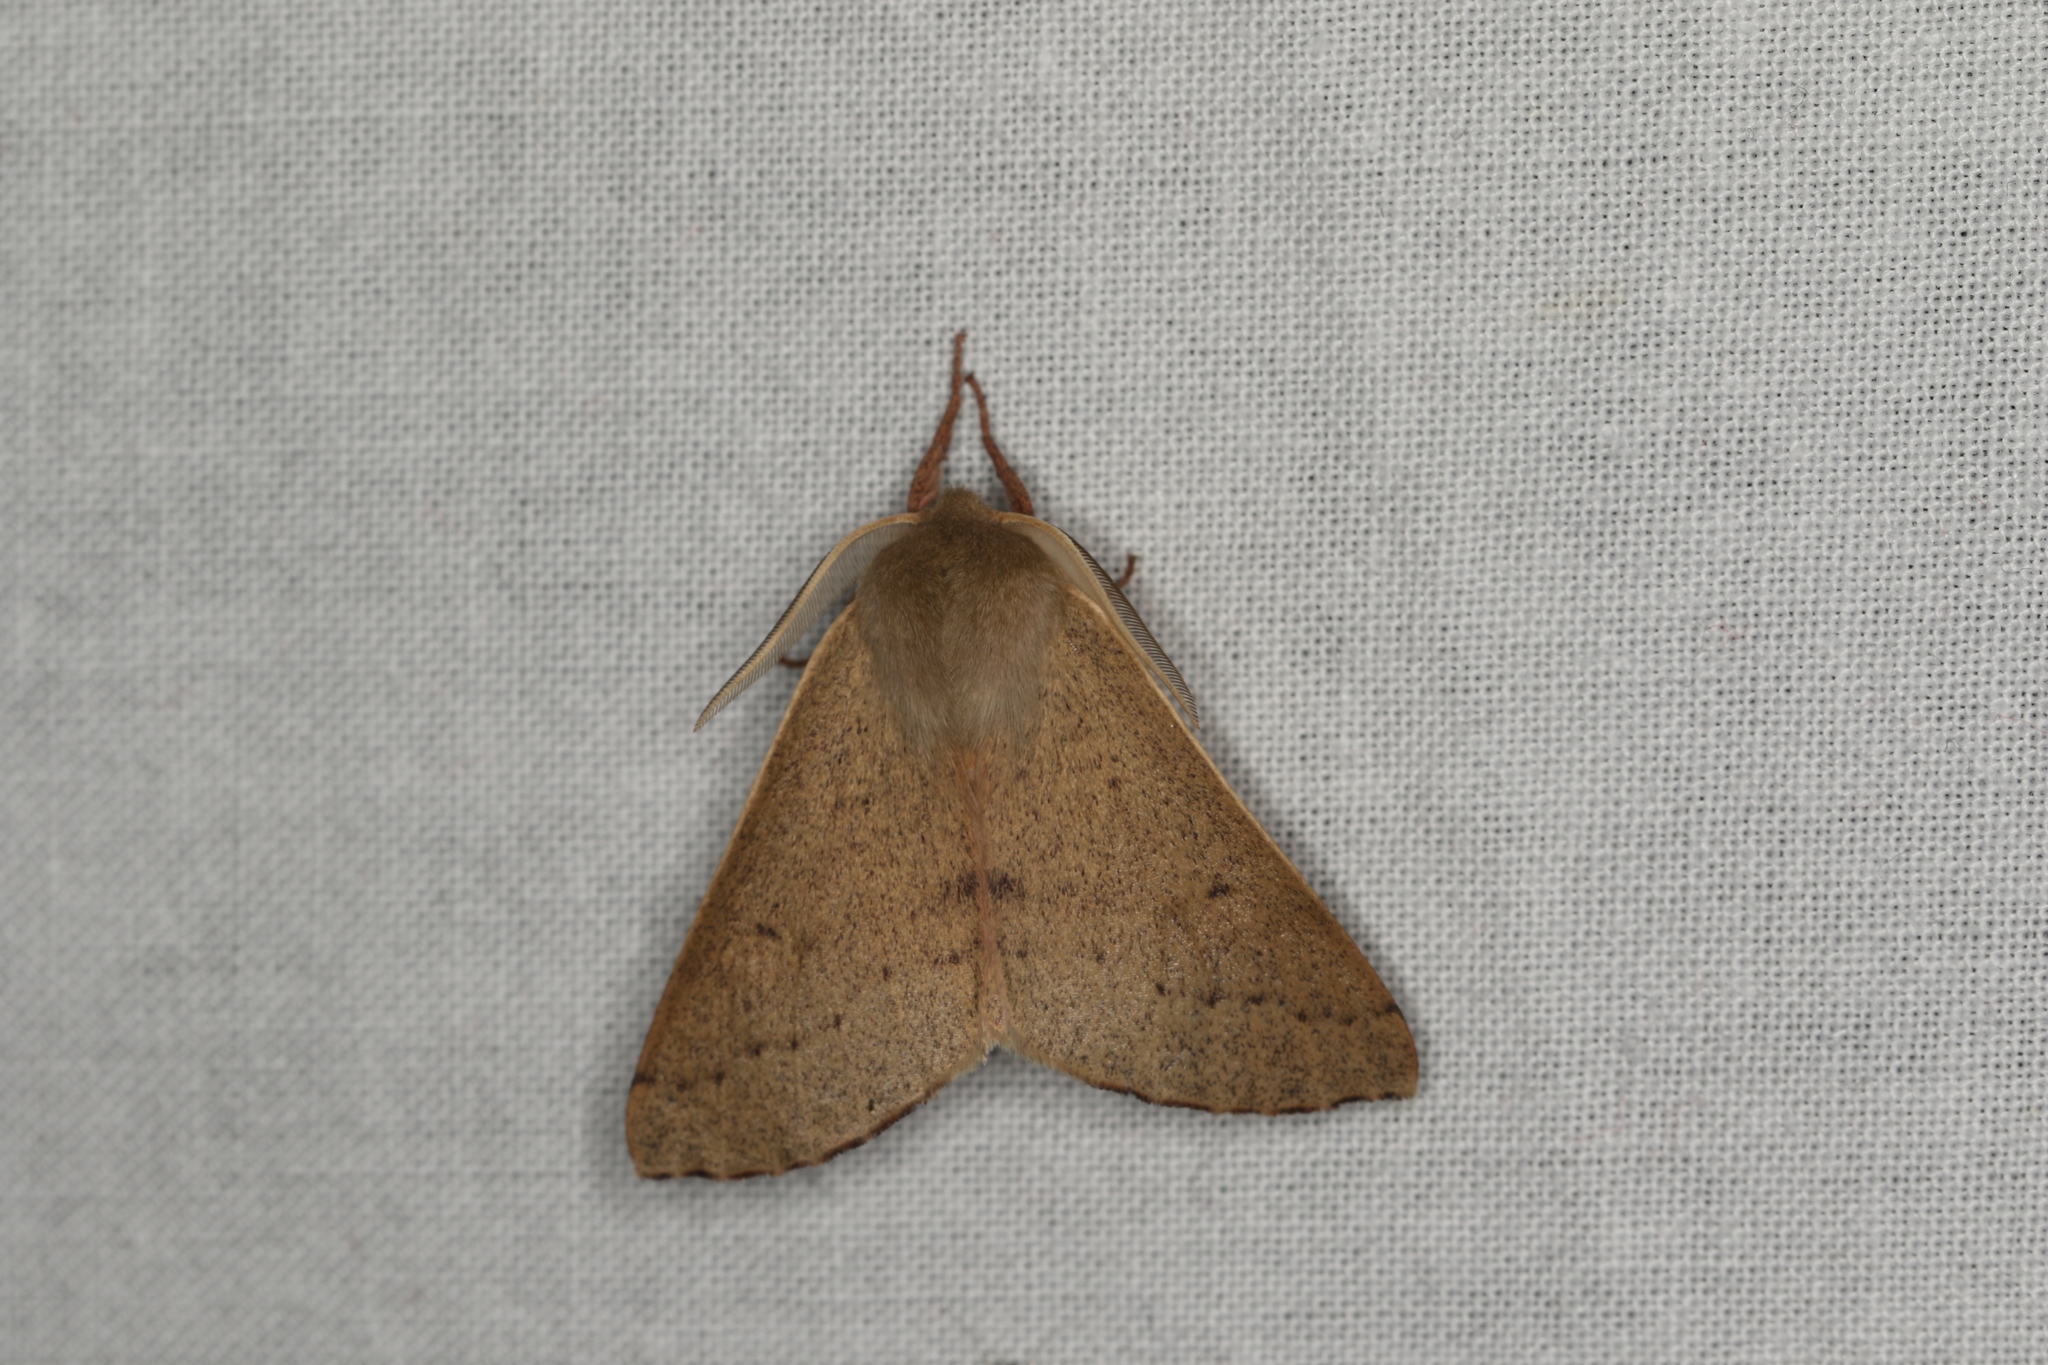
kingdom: Animalia
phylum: Arthropoda
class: Insecta
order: Lepidoptera
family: Geometridae
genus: Arhodia
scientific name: Arhodia lasiocamparia
